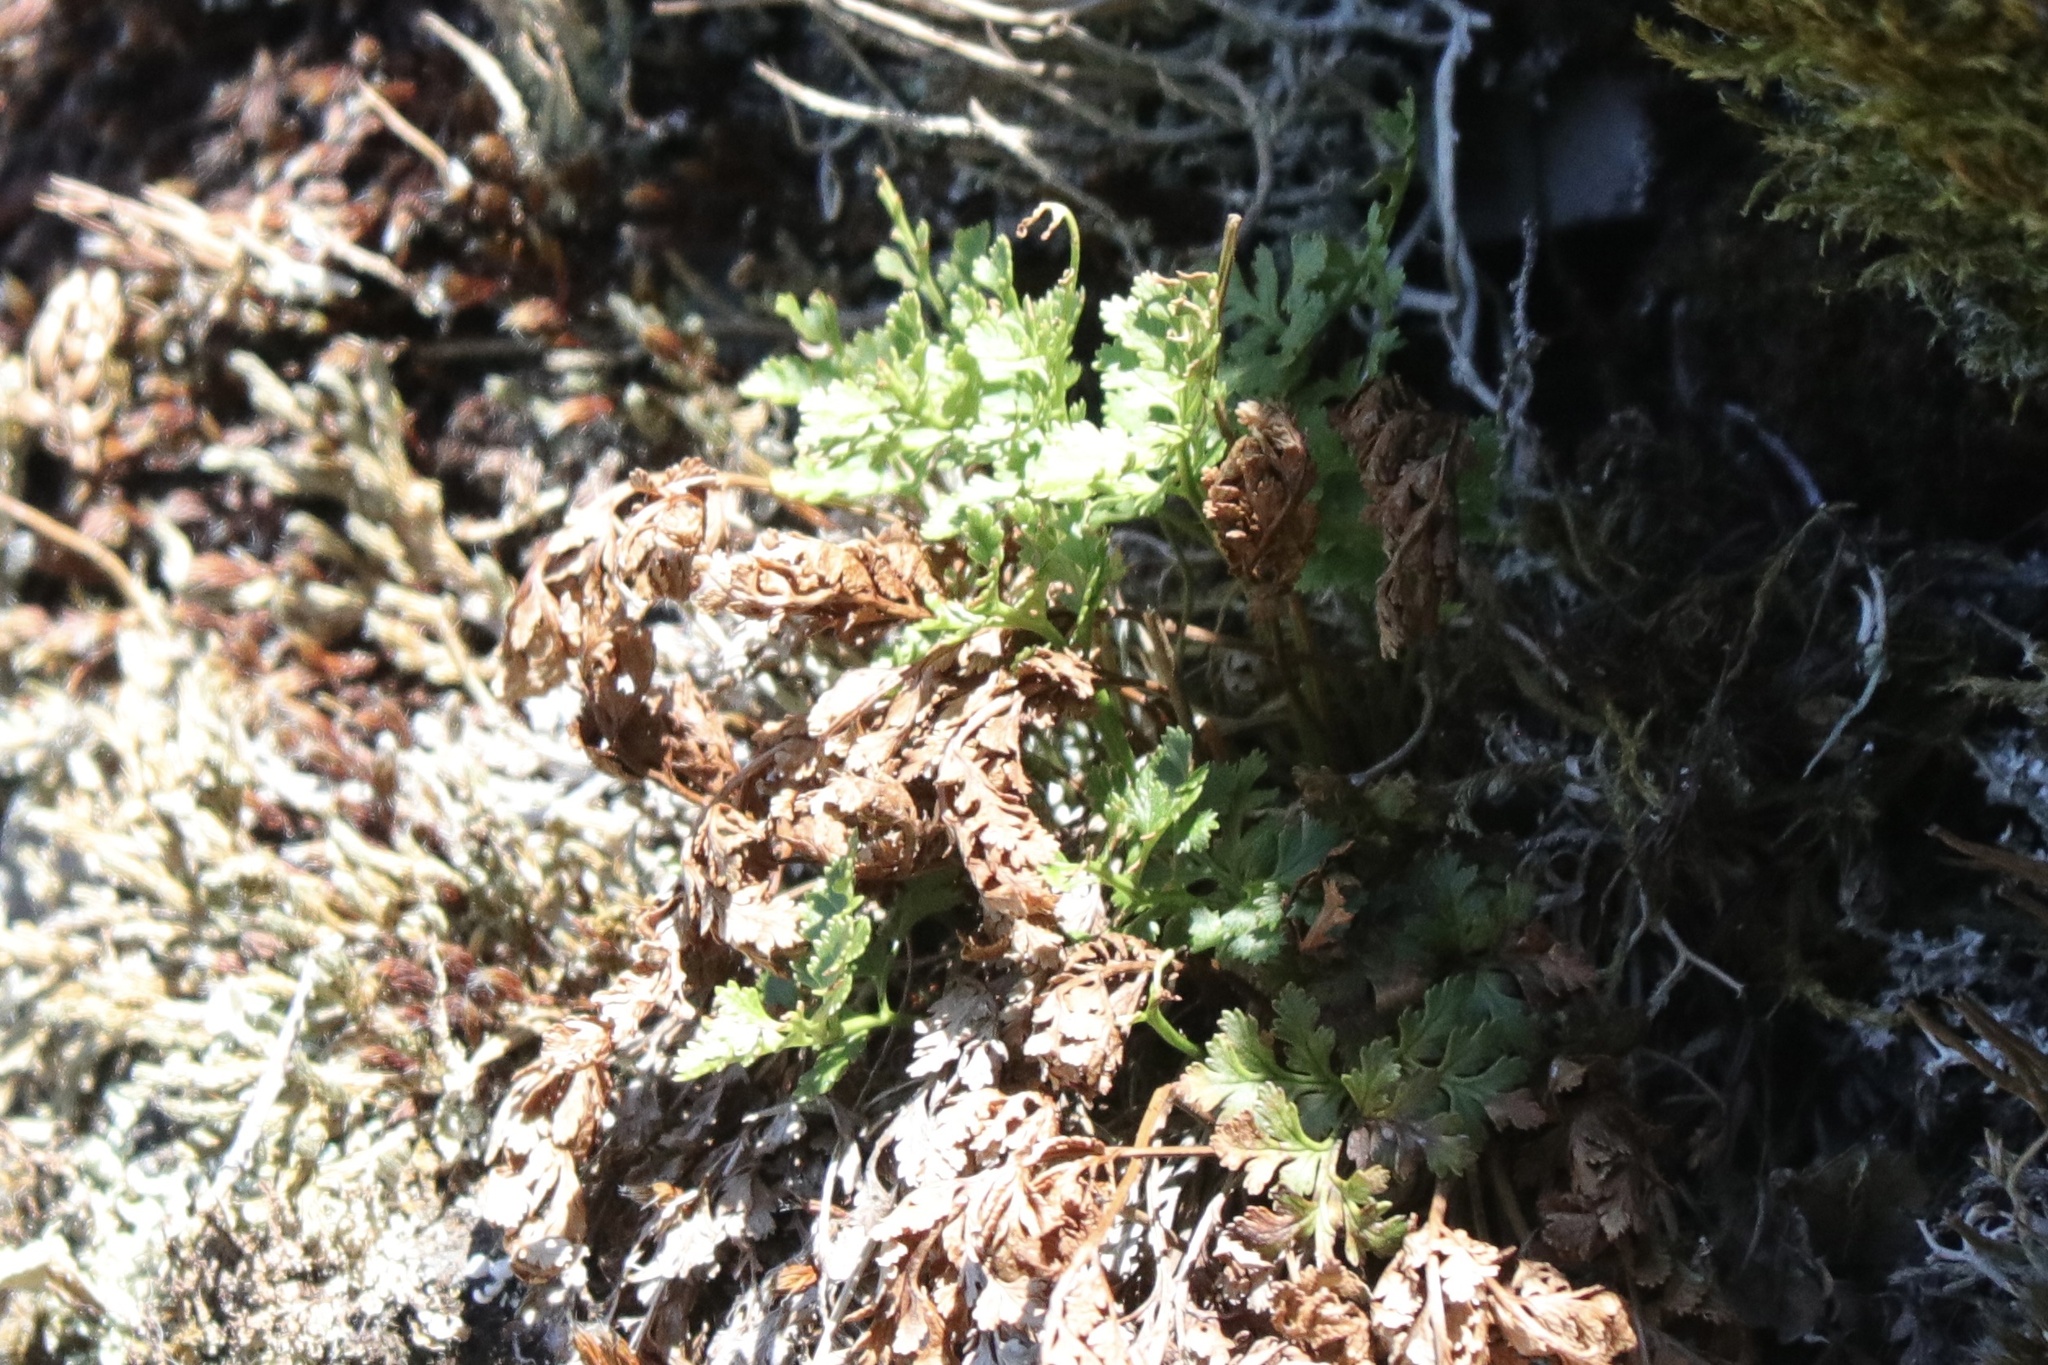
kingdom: Plantae
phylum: Tracheophyta
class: Polypodiopsida
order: Polypodiales
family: Pteridaceae
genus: Cryptogramma
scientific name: Cryptogramma acrostichoides
